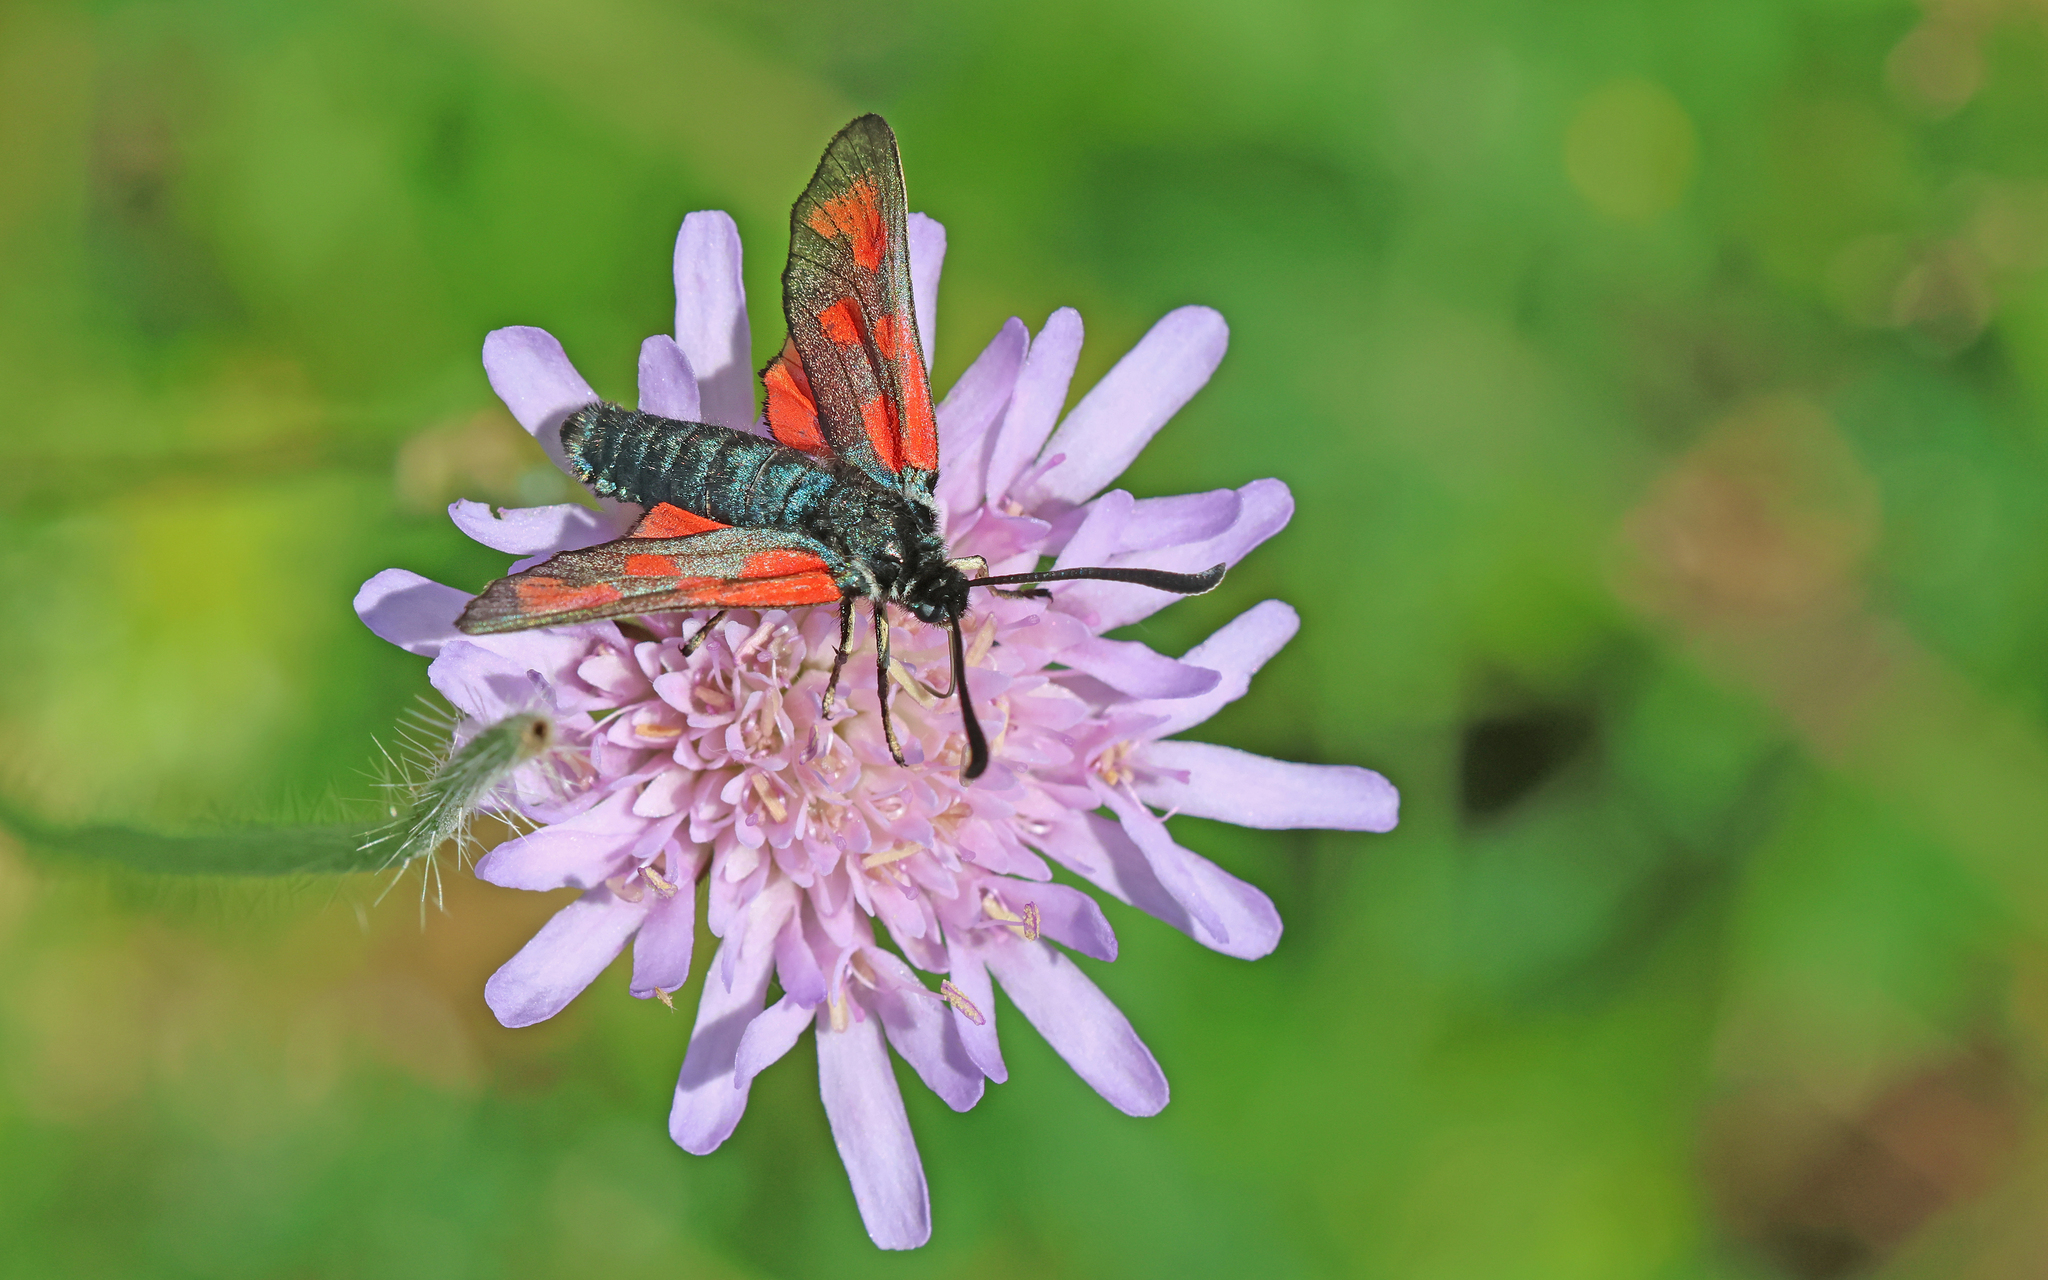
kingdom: Animalia
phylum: Arthropoda
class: Insecta
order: Lepidoptera
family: Zygaenidae
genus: Zygaena
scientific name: Zygaena loti
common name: Slender scotch burnet
